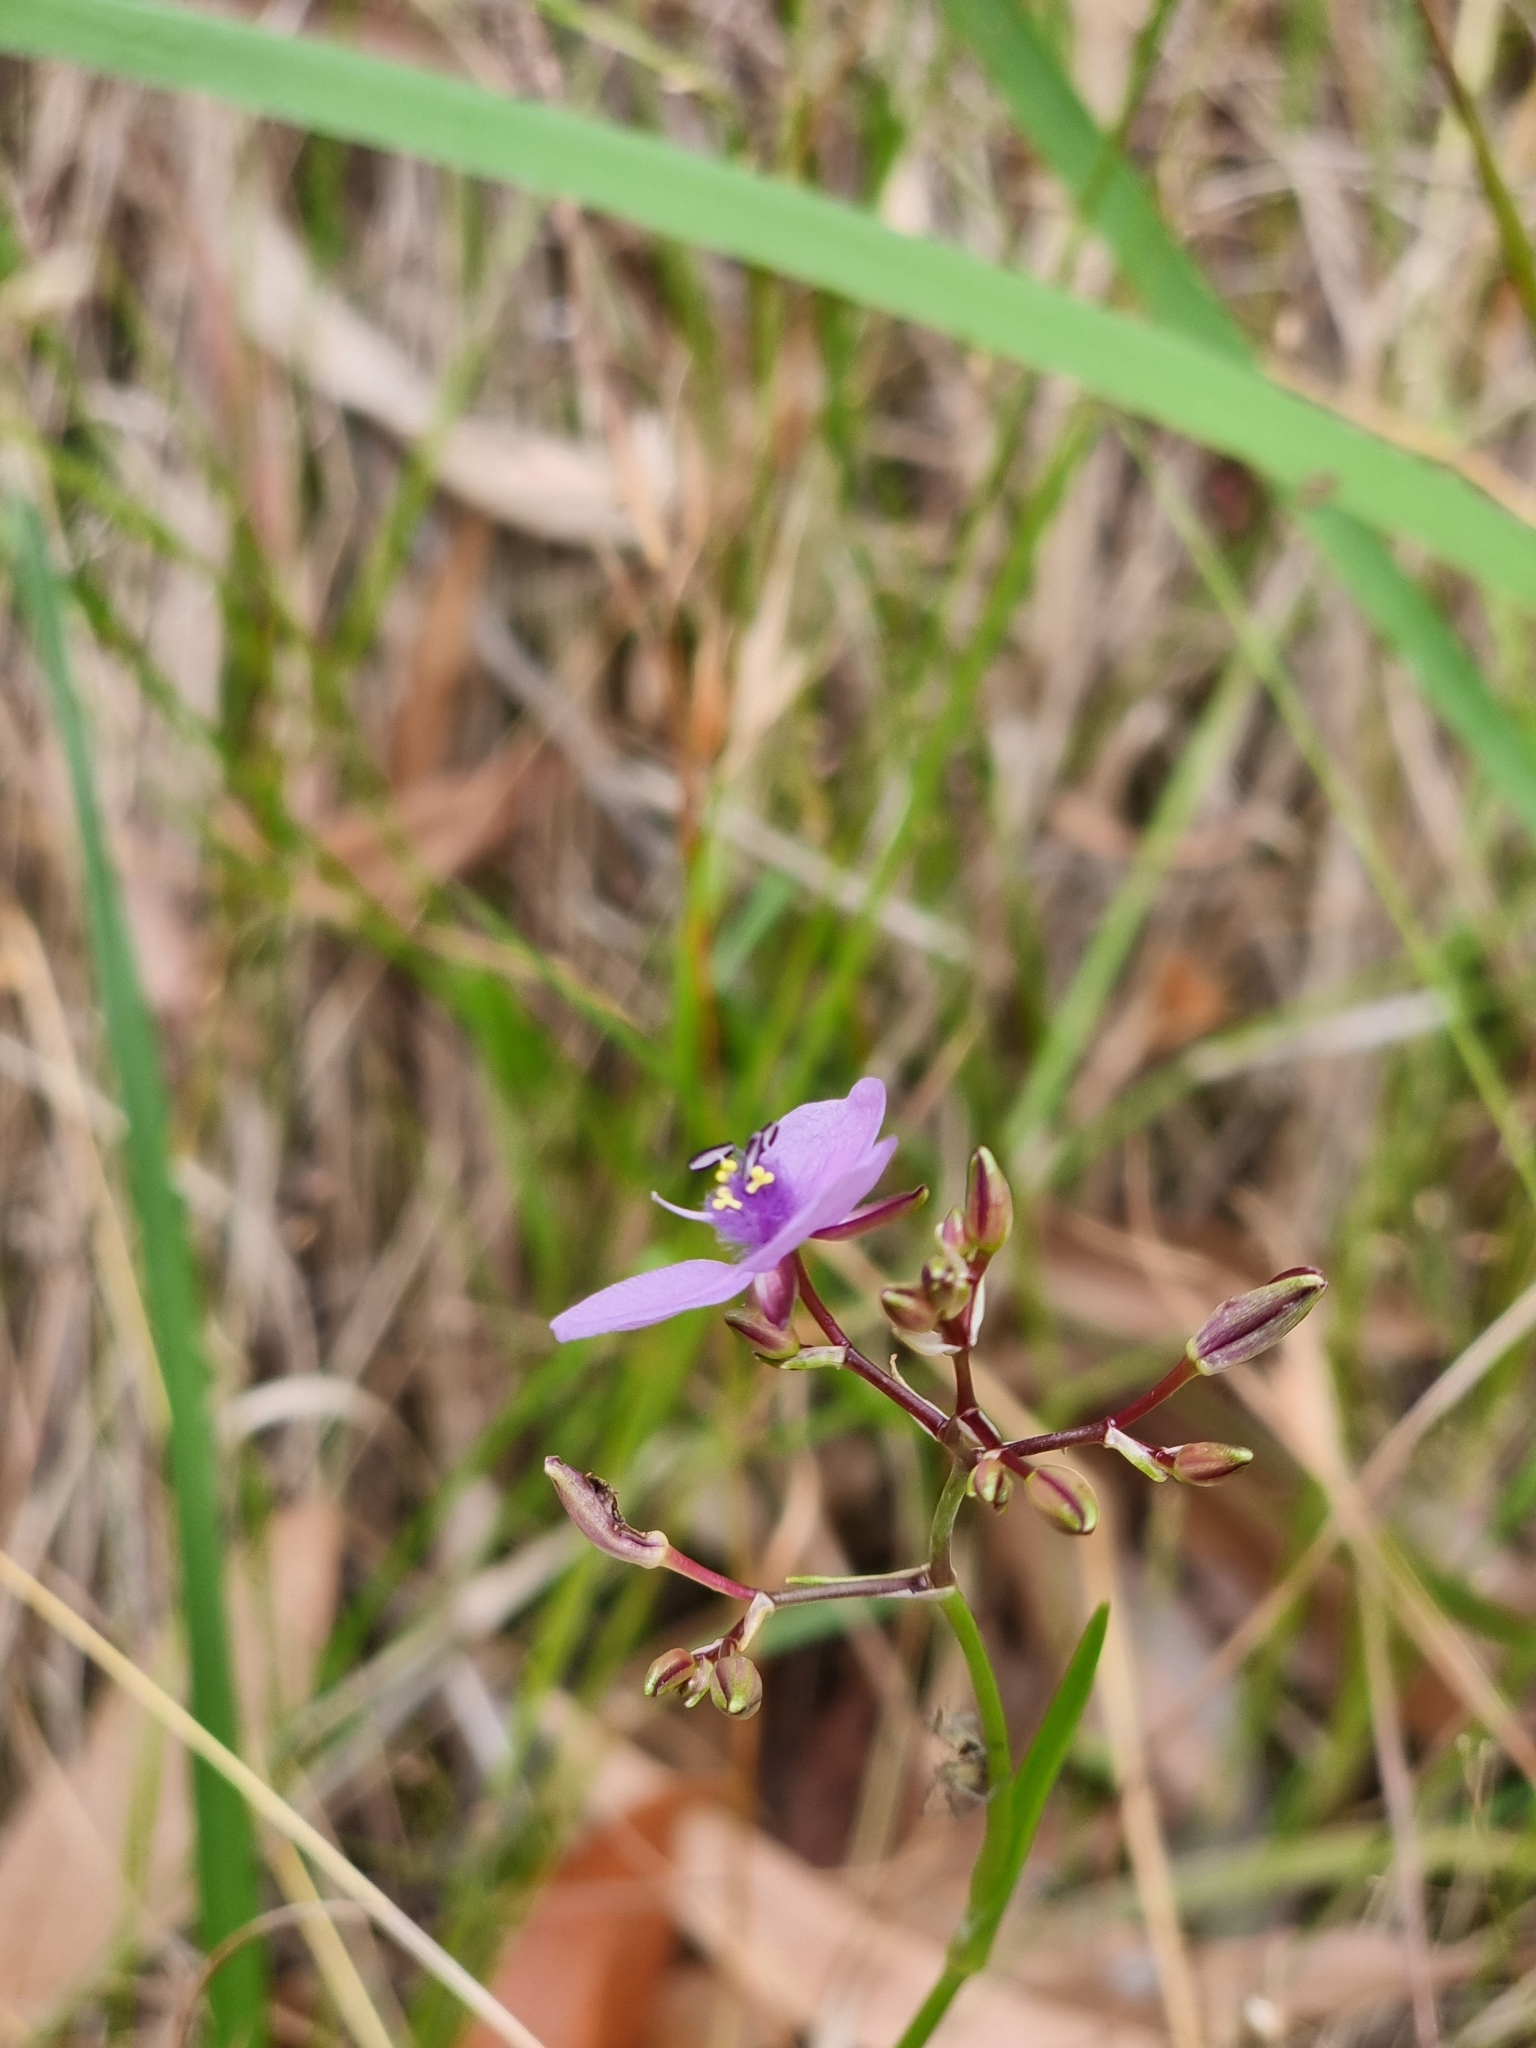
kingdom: Plantae
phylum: Tracheophyta
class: Liliopsida
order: Commelinales
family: Commelinaceae
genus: Murdannia
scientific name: Murdannia graminea
